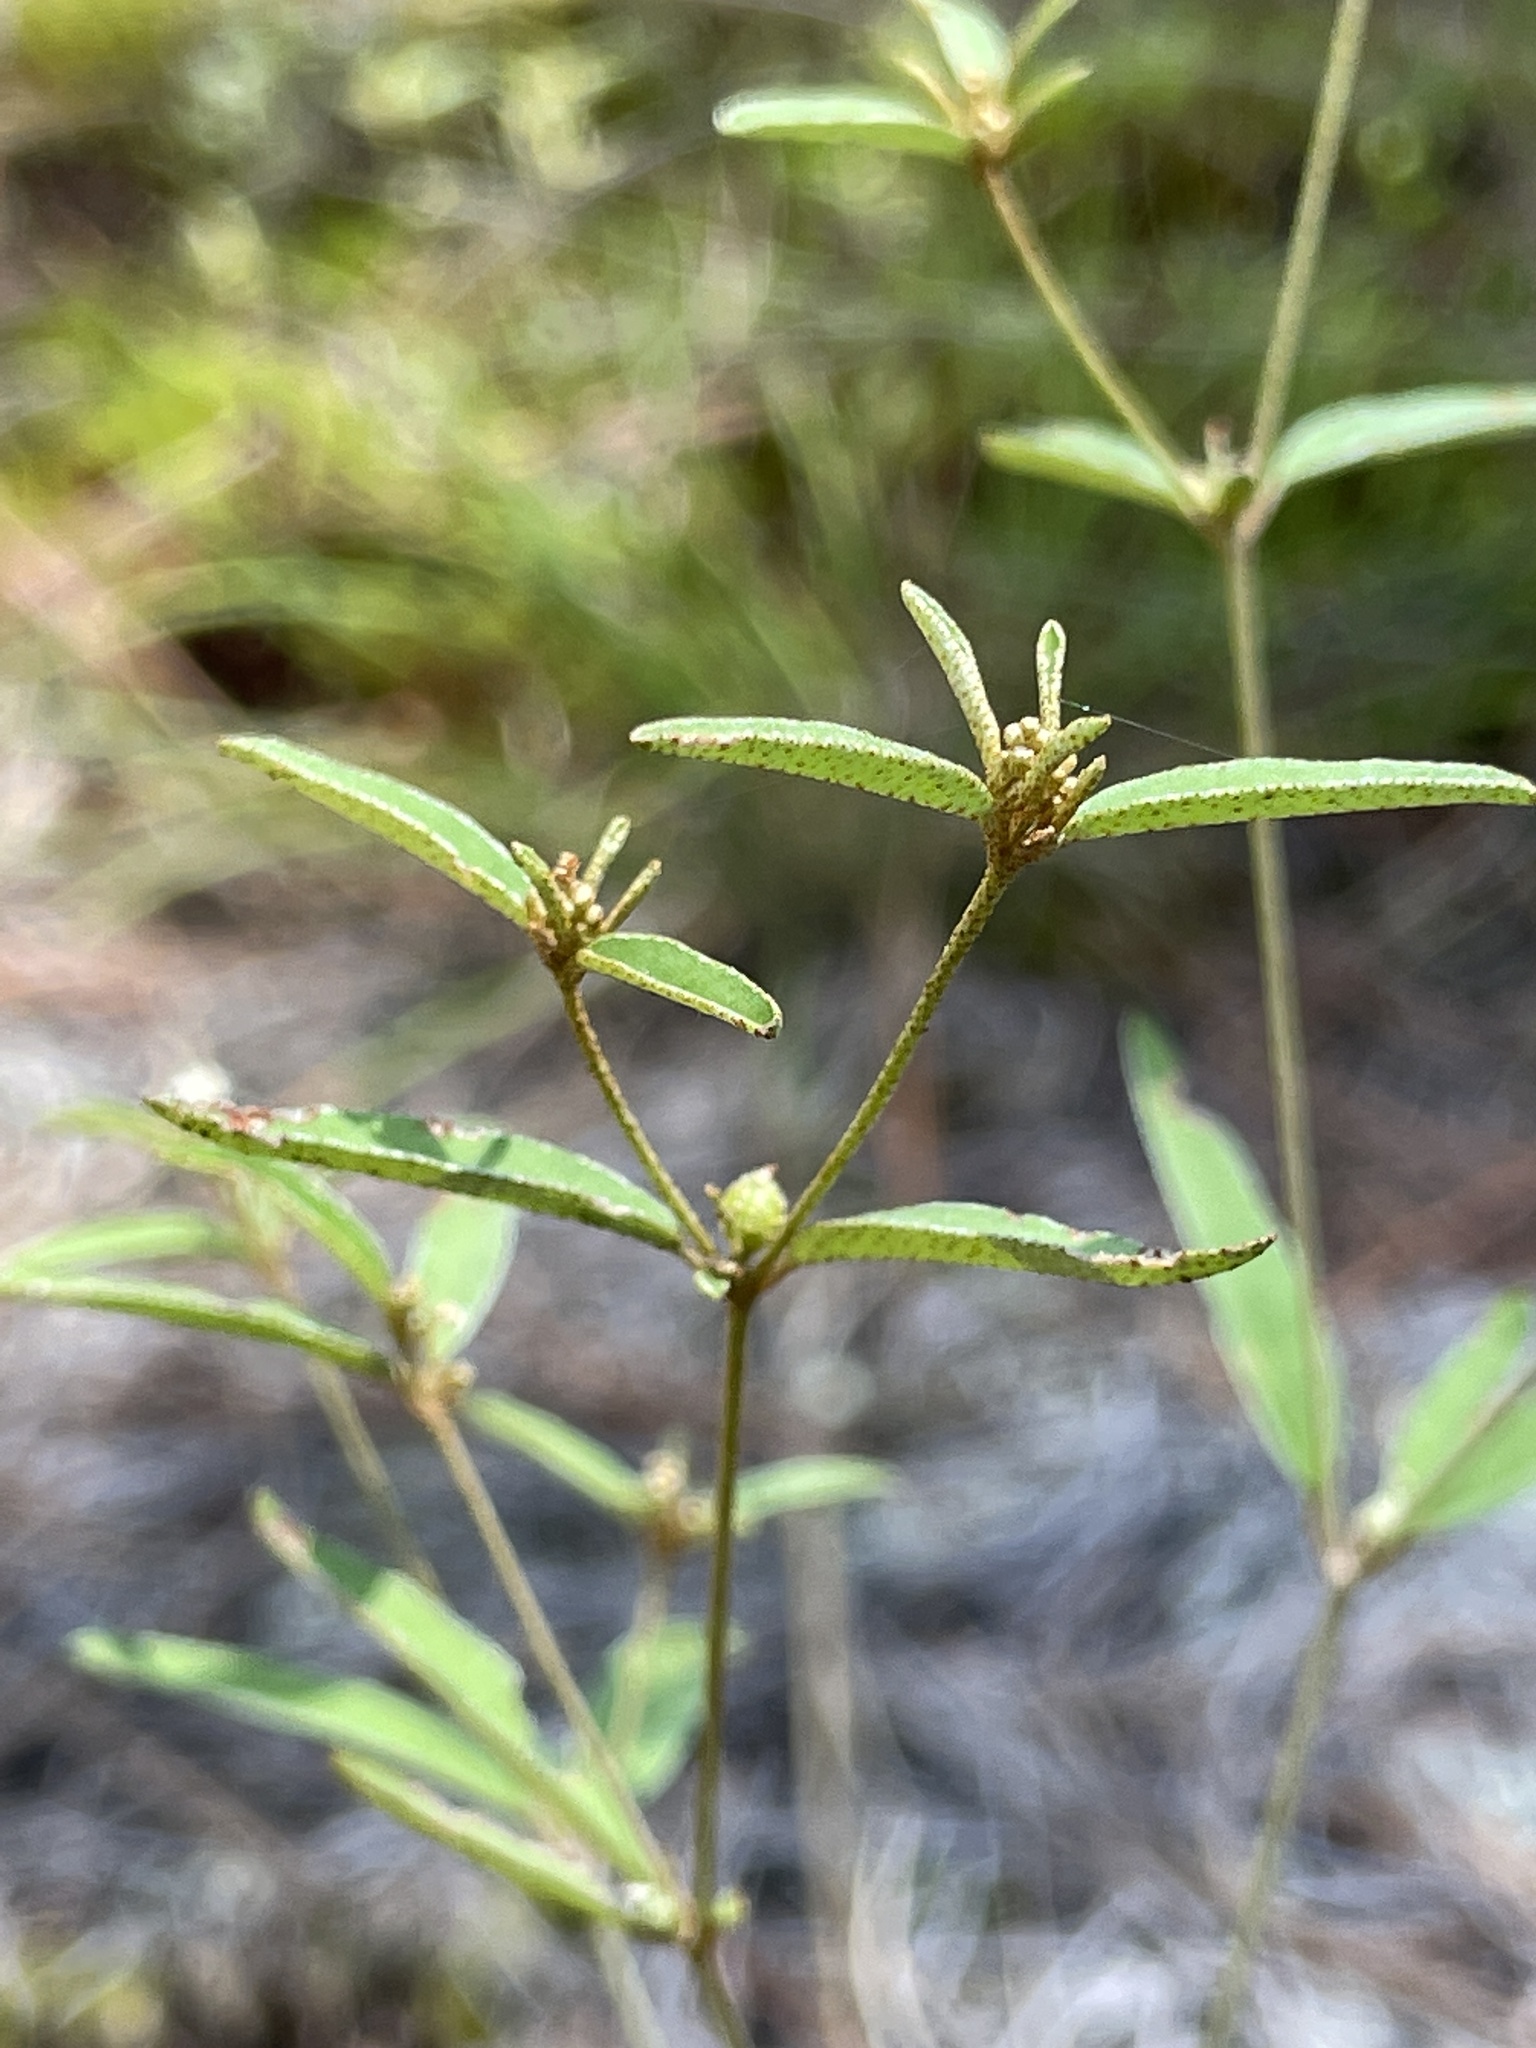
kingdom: Plantae
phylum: Tracheophyta
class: Magnoliopsida
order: Malpighiales
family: Euphorbiaceae
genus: Croton
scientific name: Croton michauxii
